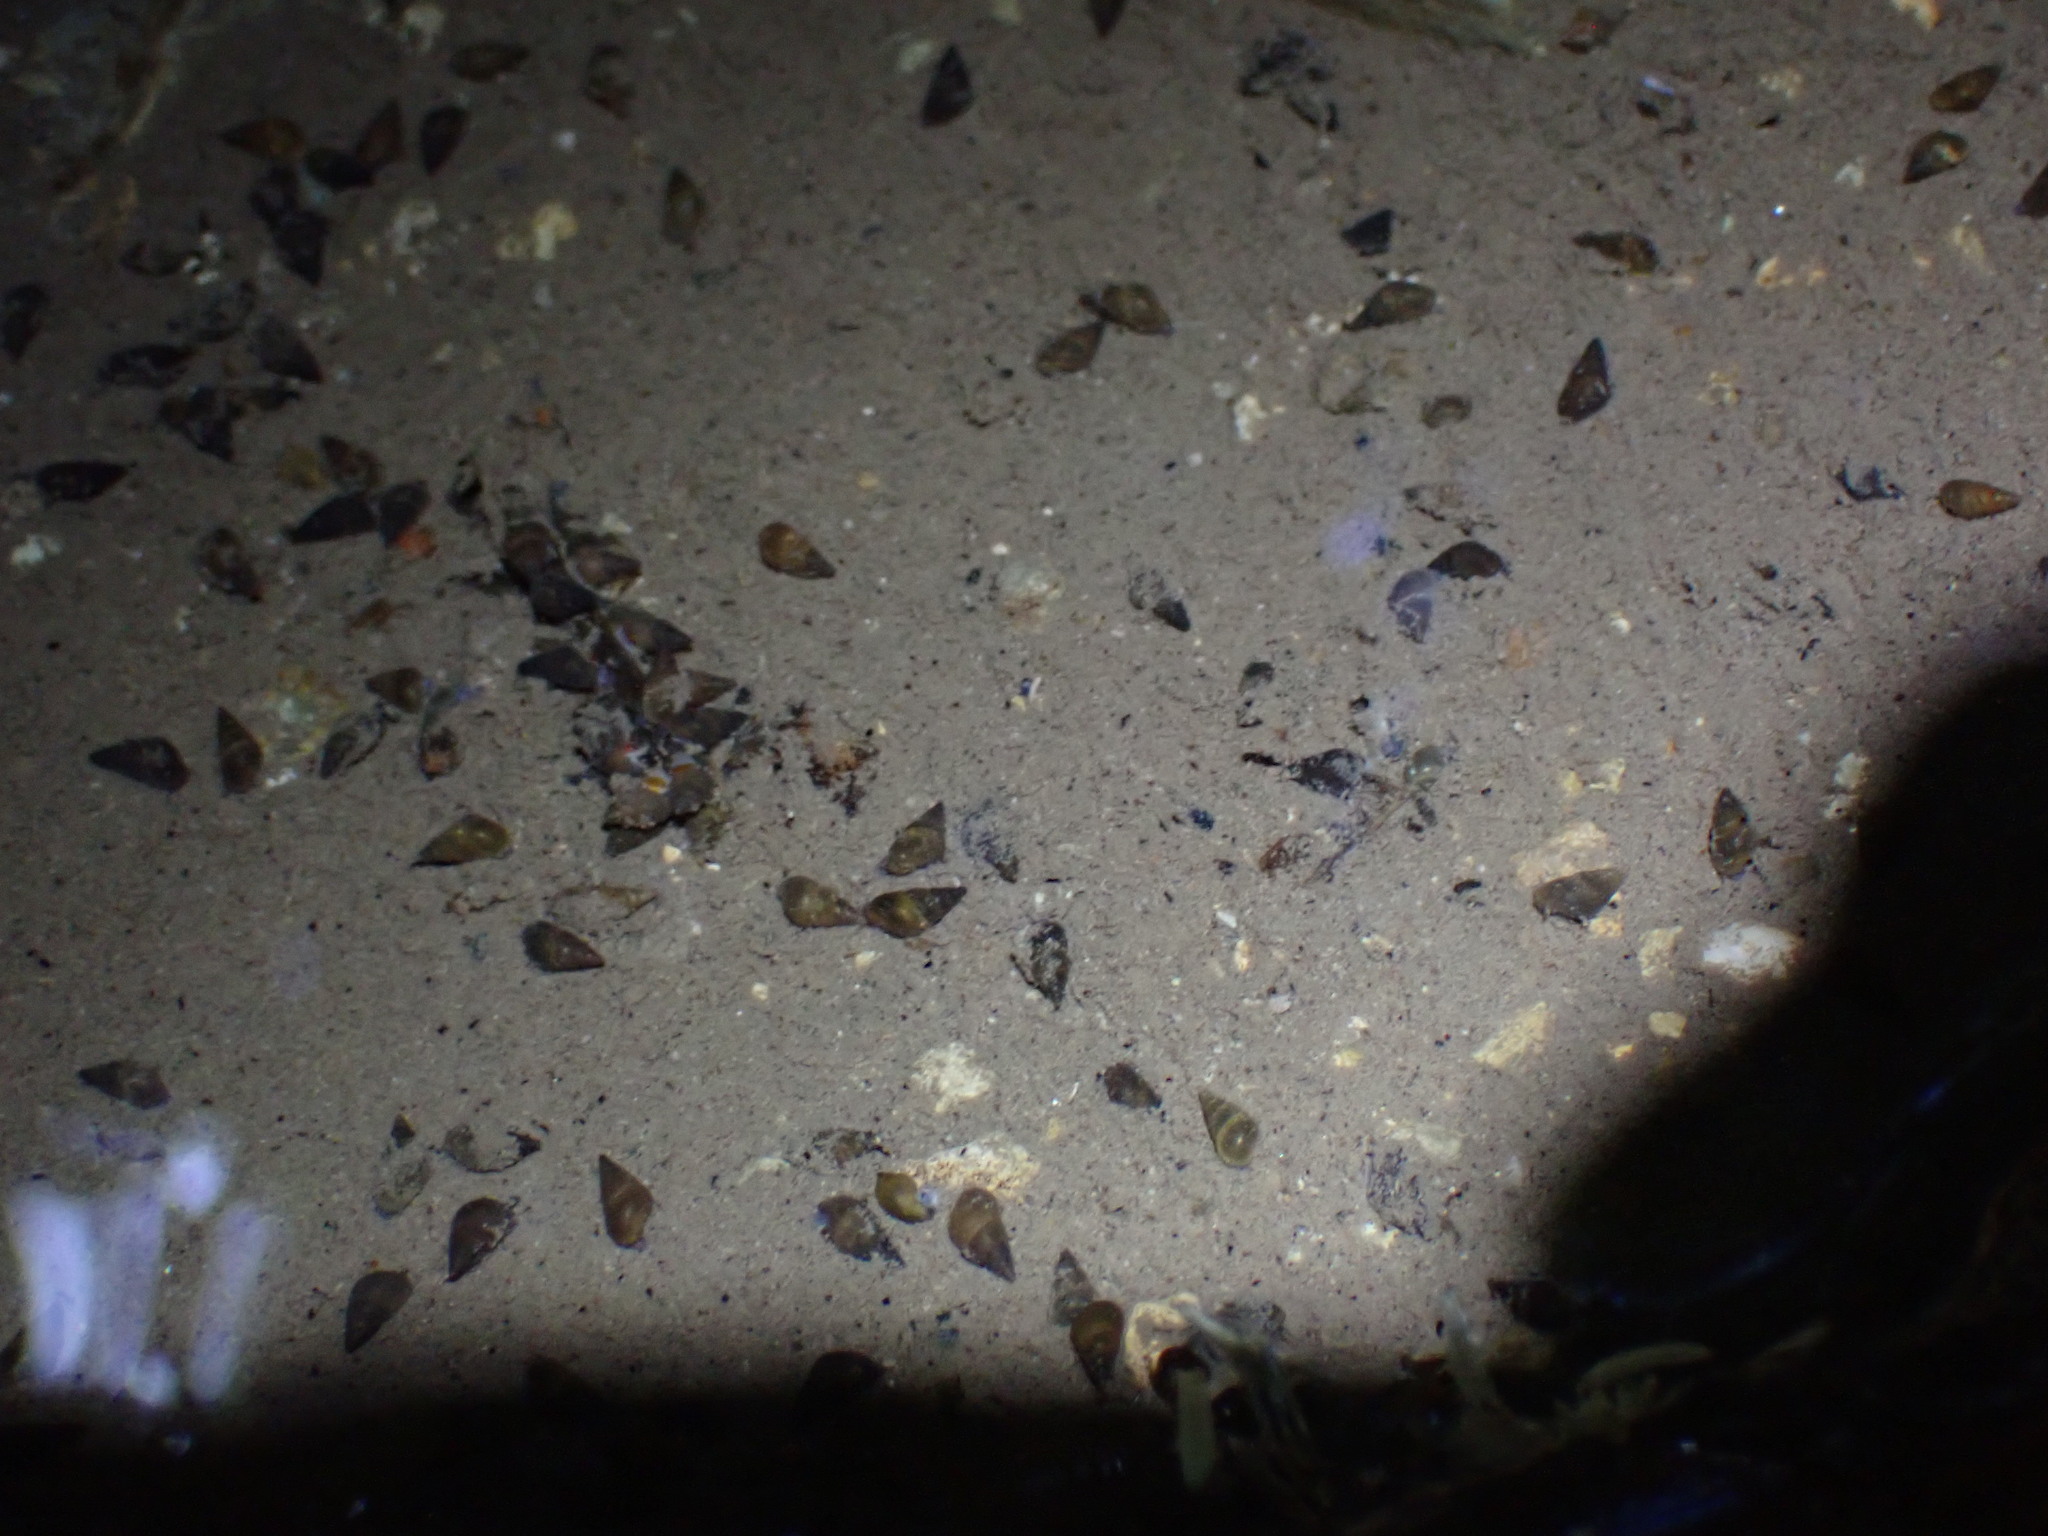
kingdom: Animalia
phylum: Mollusca
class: Gastropoda
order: Littorinimorpha
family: Tateidae
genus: Potamopyrgus
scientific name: Potamopyrgus antipodarum
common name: Jenkins' spire snail
